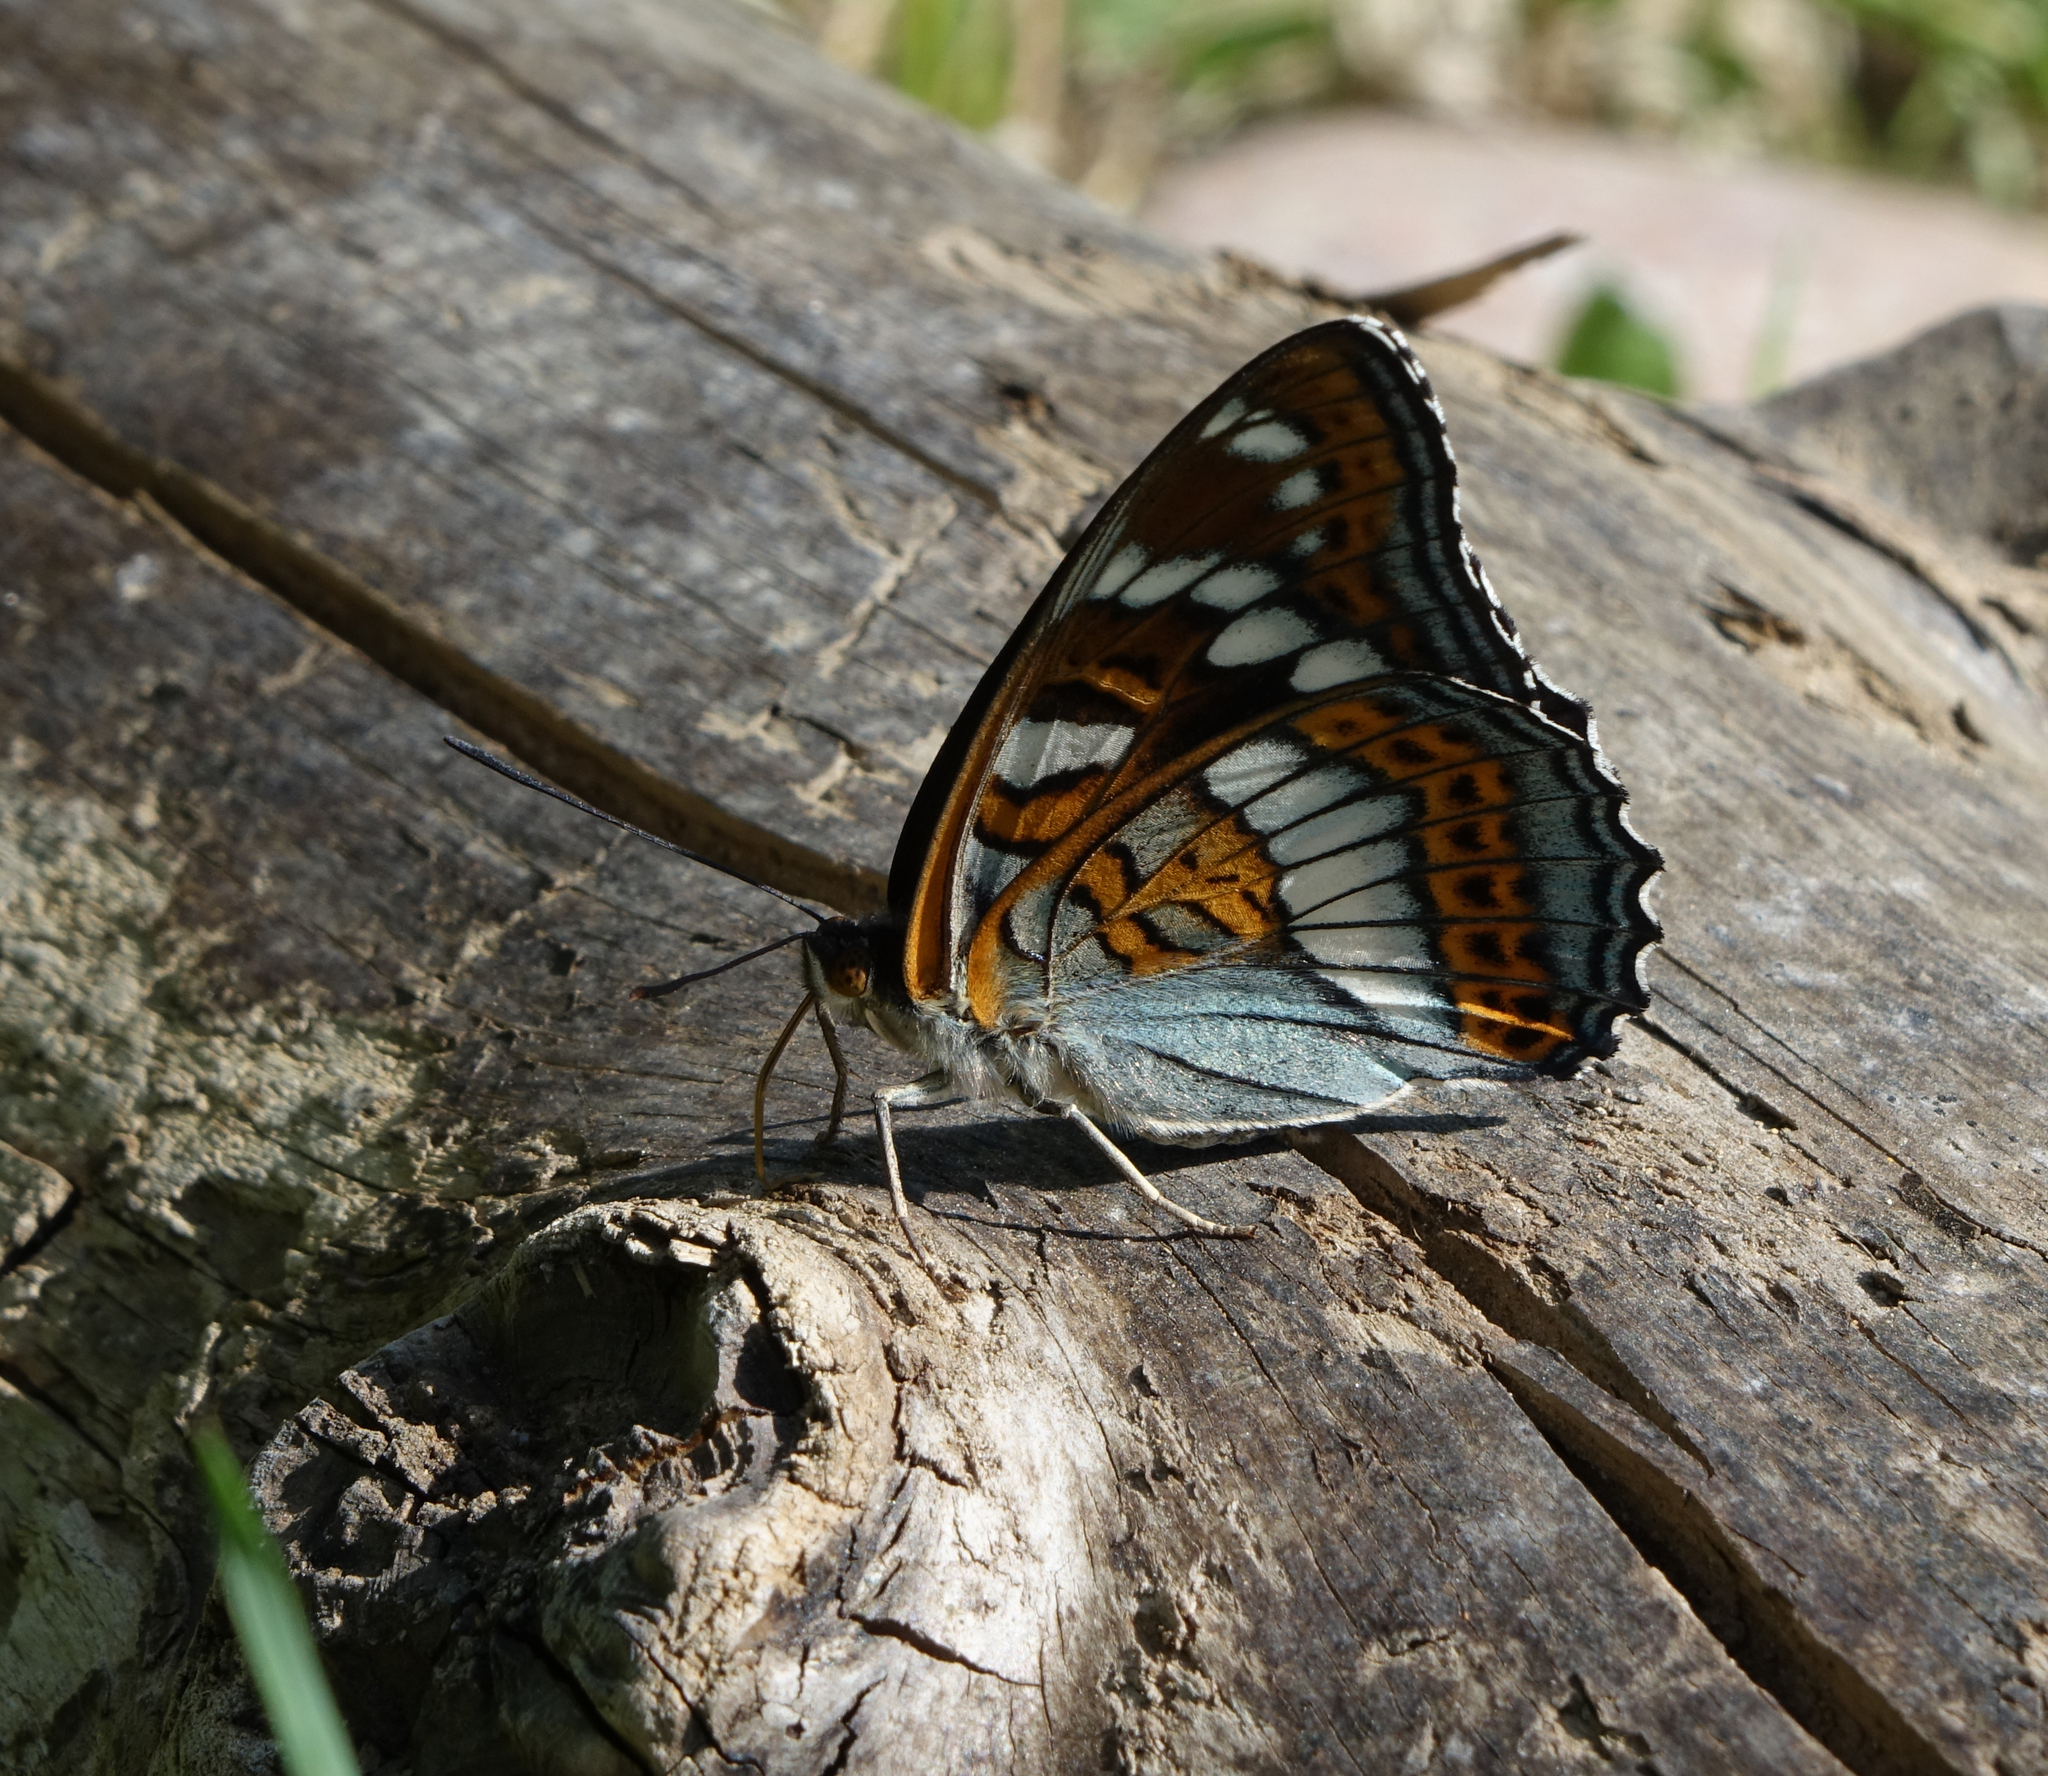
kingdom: Animalia
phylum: Arthropoda
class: Insecta
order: Lepidoptera
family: Nymphalidae
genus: Limenitis
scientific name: Limenitis populi
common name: Poplar admiral
